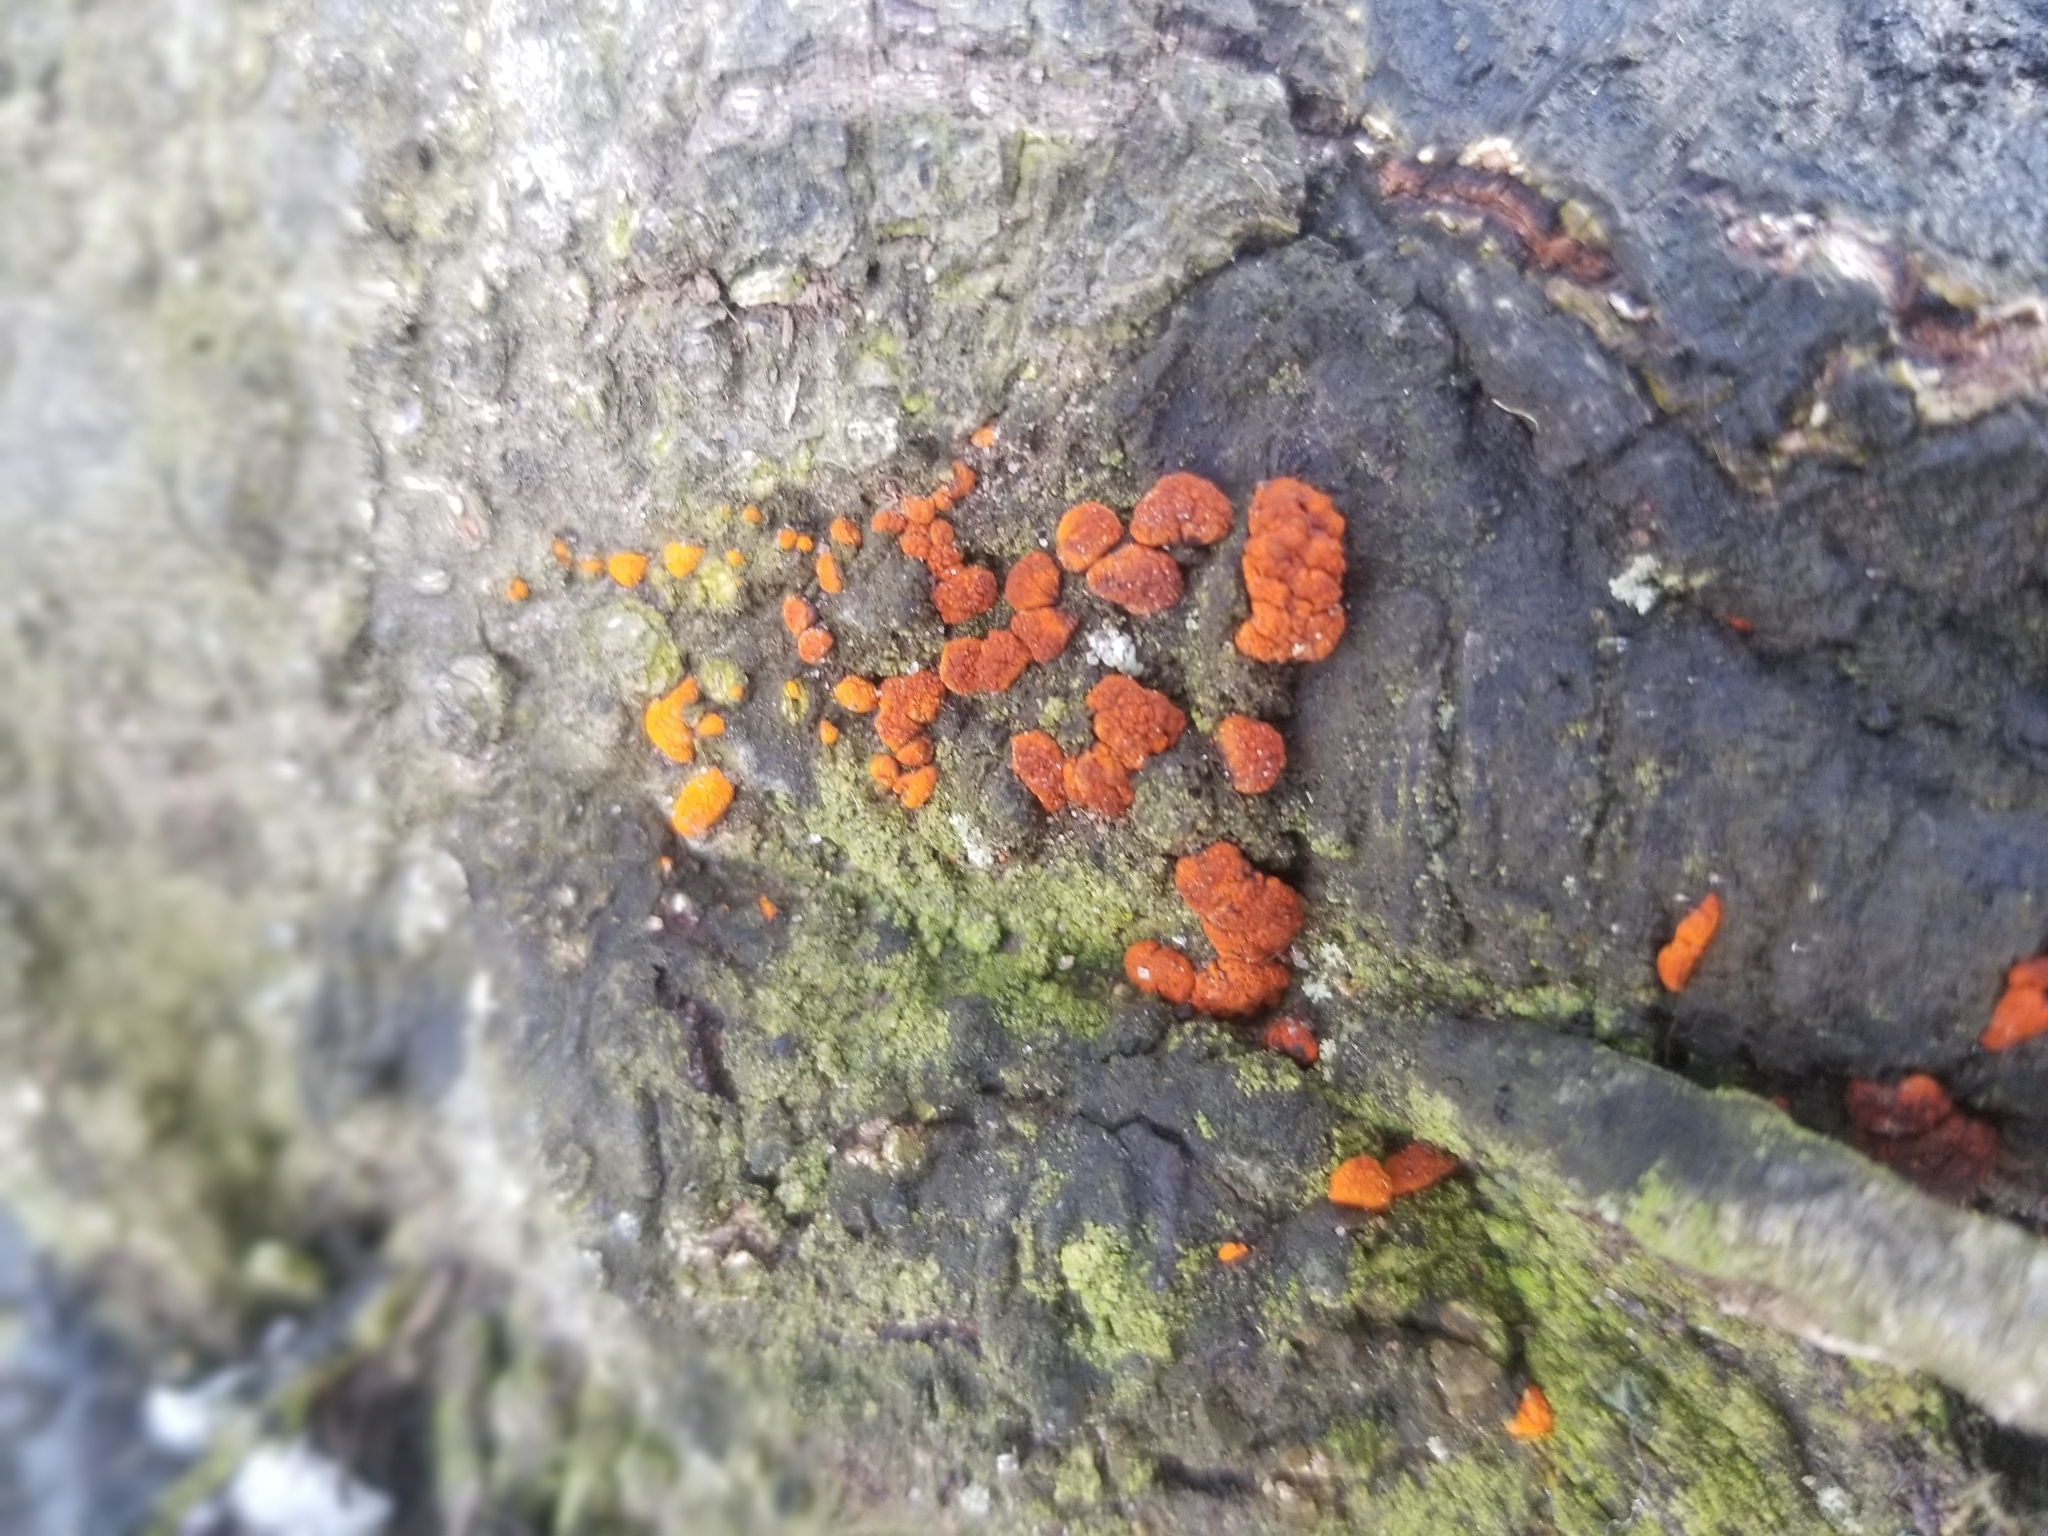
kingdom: Fungi
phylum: Ascomycota
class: Sordariomycetes
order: Diaporthales
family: Cryphonectriaceae
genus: Amphilogia
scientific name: Amphilogia gyrosa
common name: Orange hobnail canker
